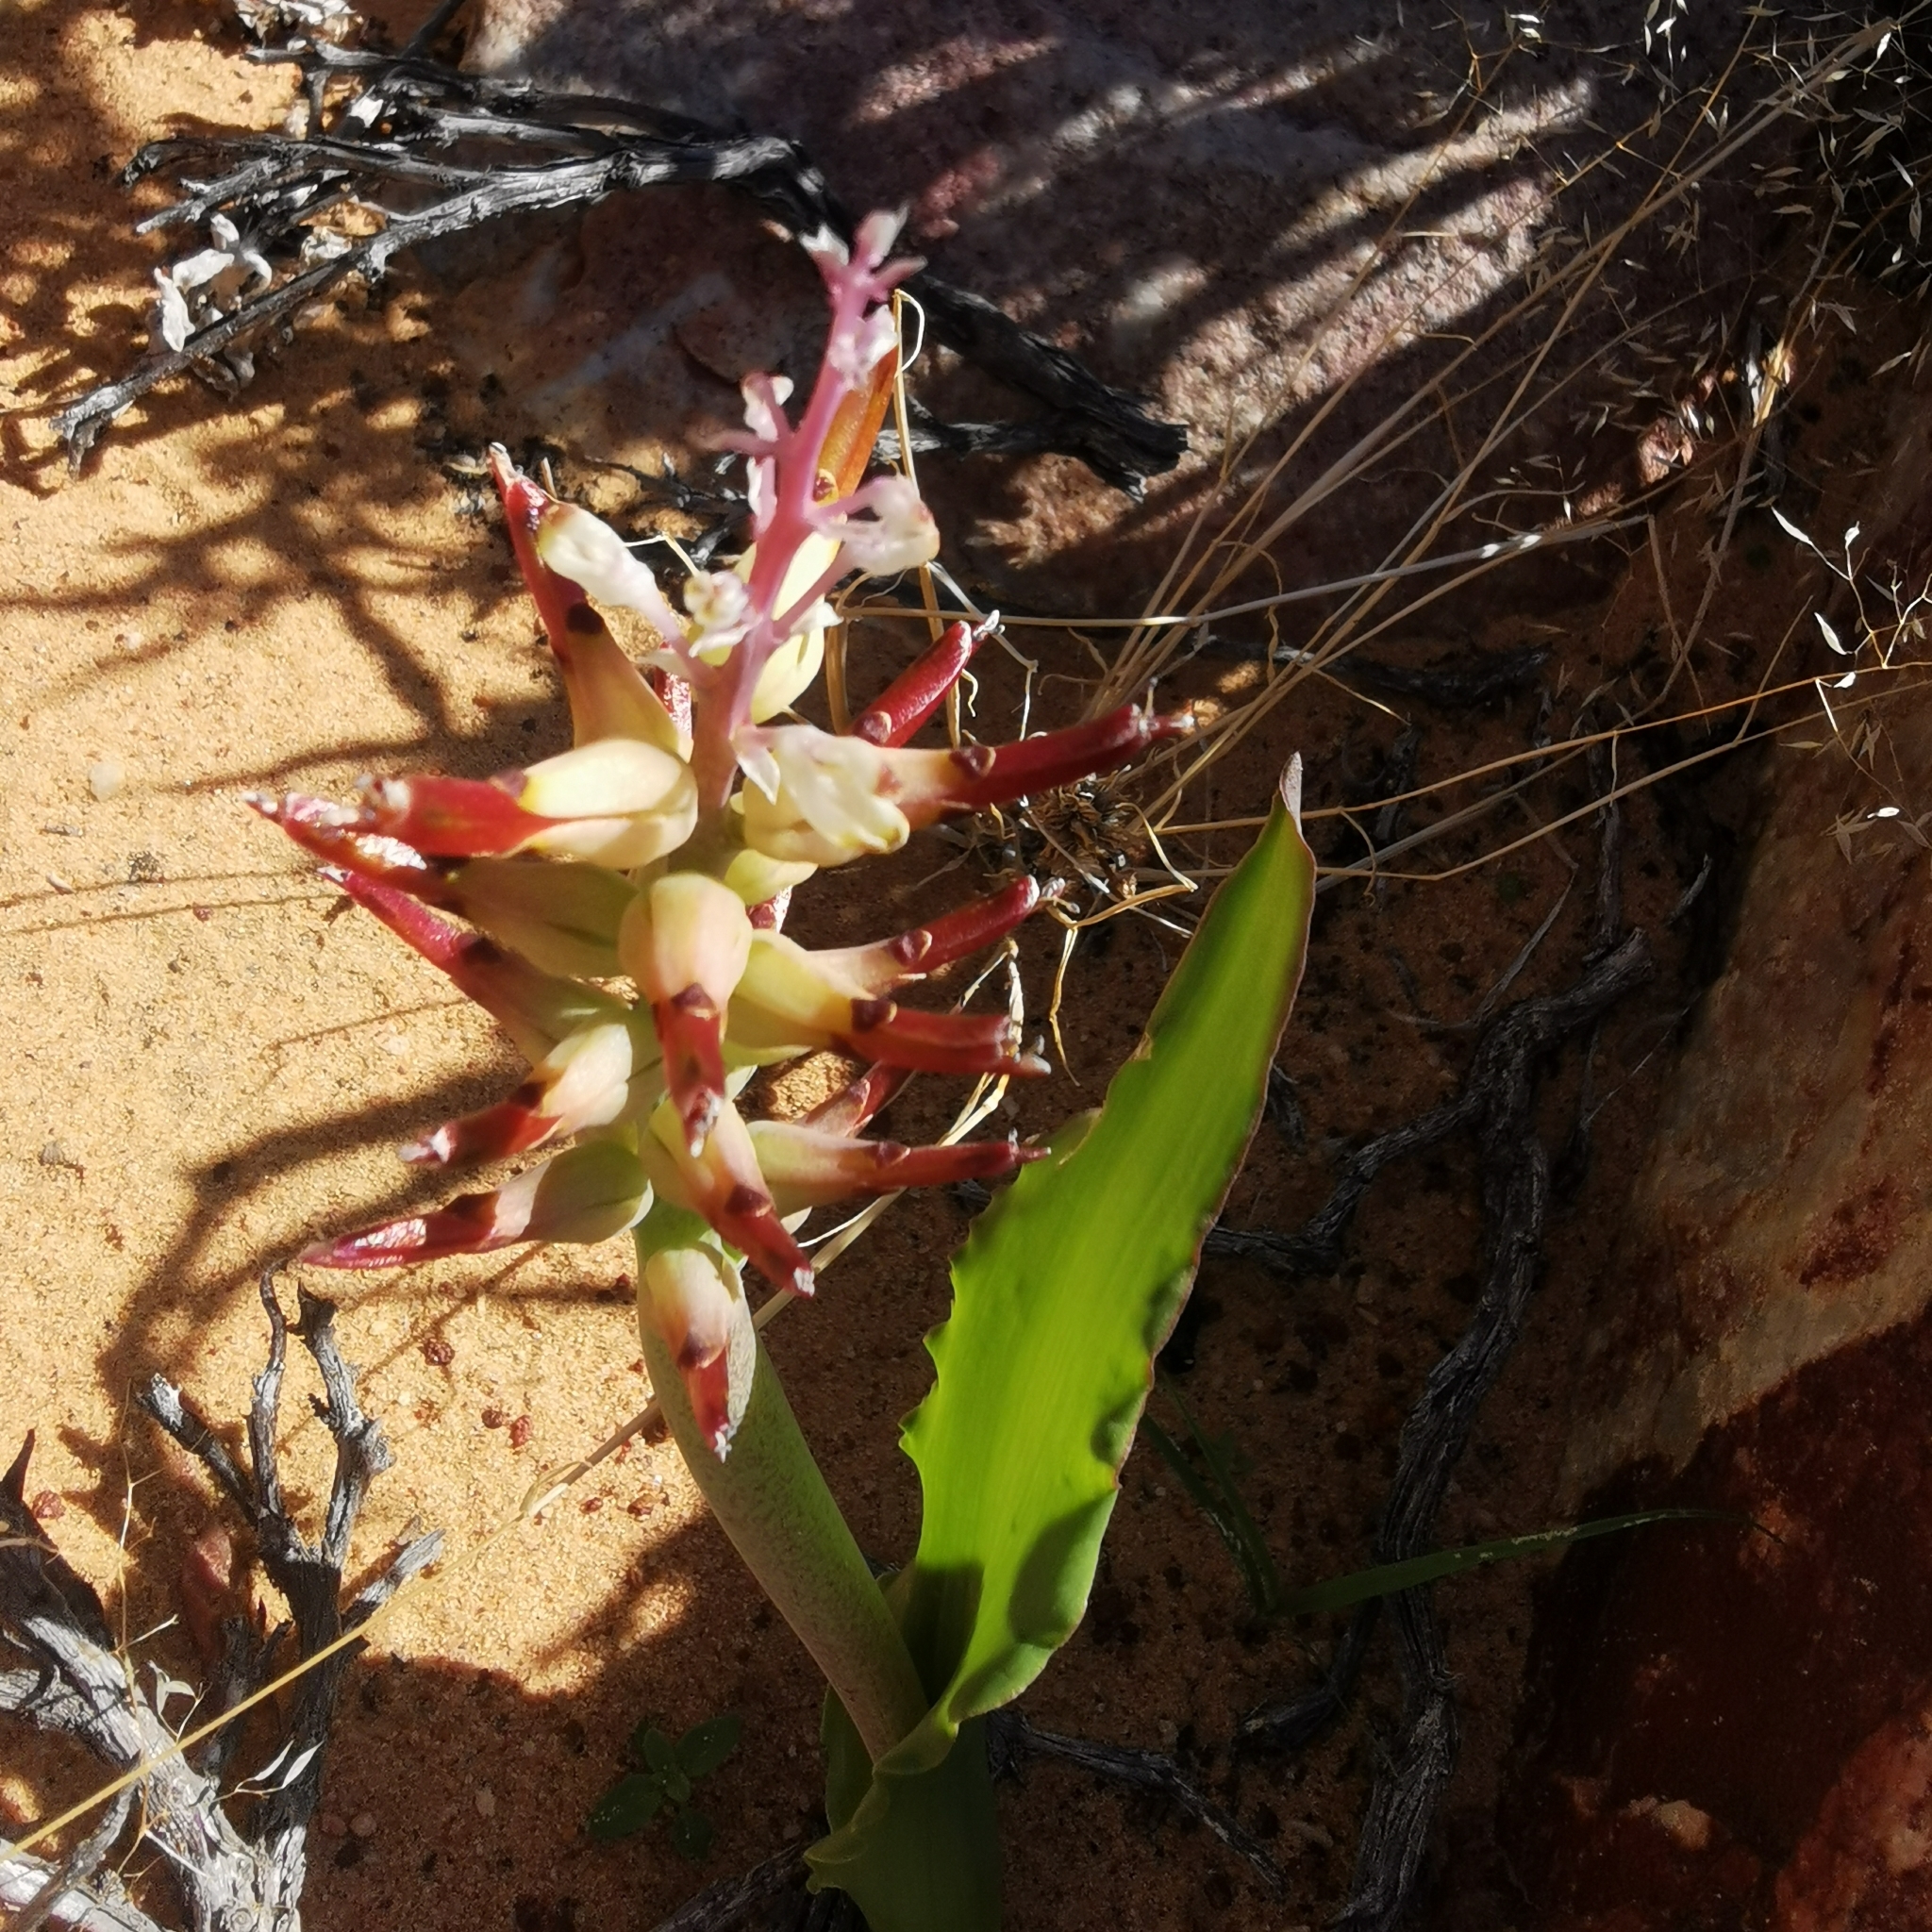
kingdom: Plantae
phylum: Tracheophyta
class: Liliopsida
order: Asparagales
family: Asparagaceae
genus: Lachenalia
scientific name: Lachenalia marginata
